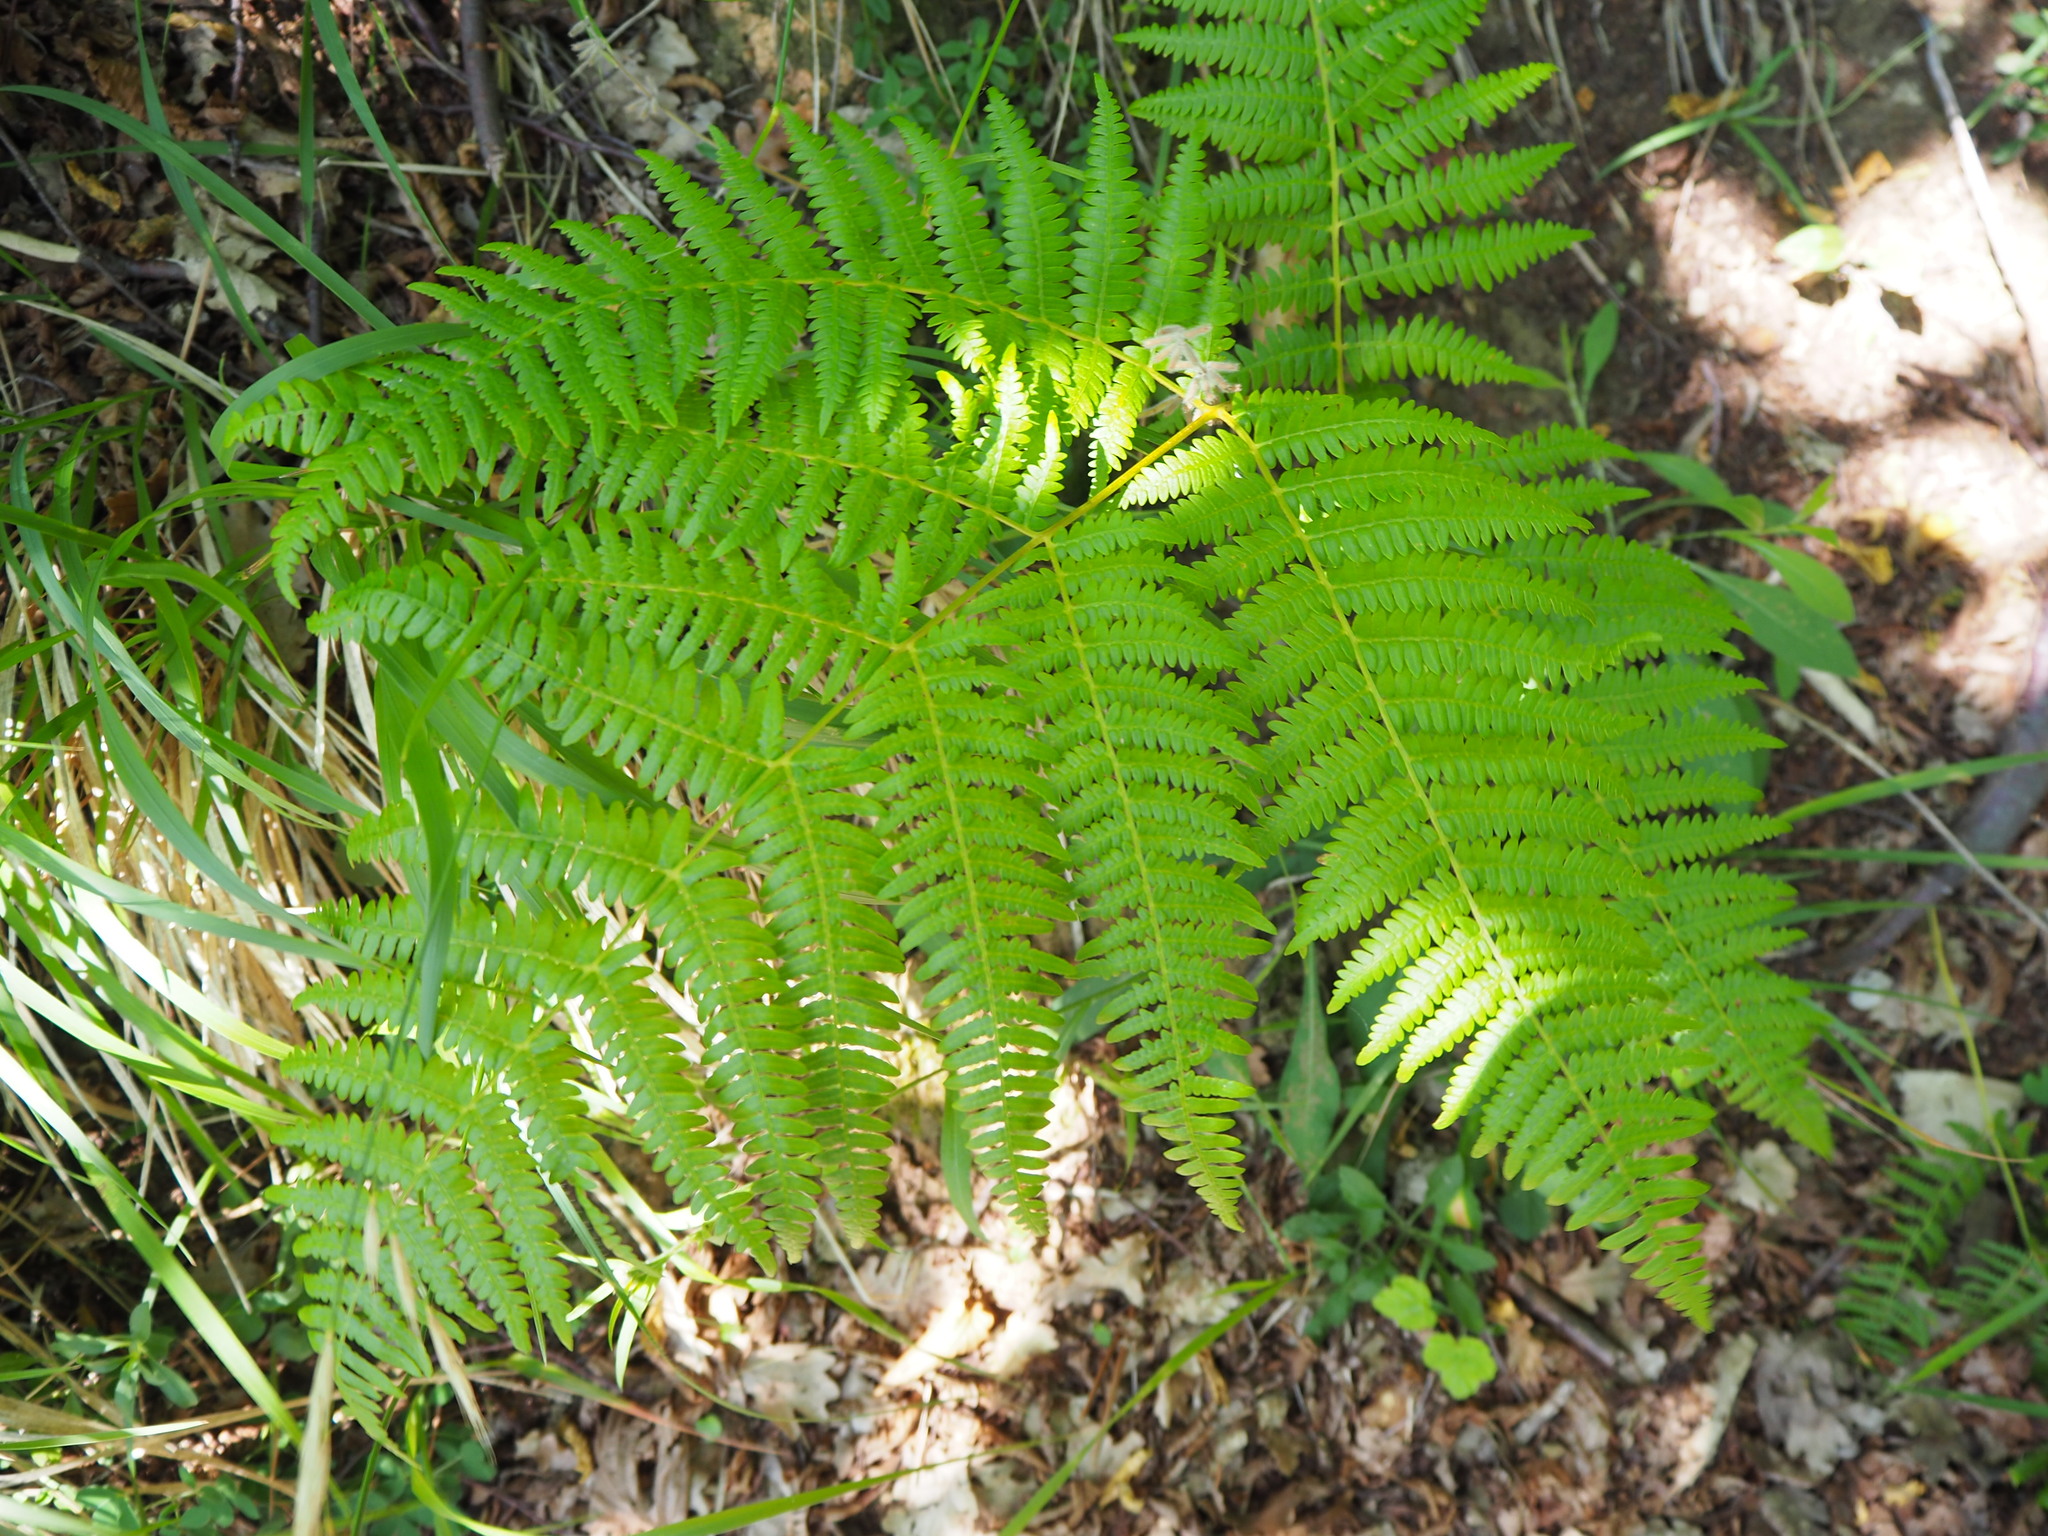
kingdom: Plantae
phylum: Tracheophyta
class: Polypodiopsida
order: Polypodiales
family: Dennstaedtiaceae
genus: Pteridium
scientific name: Pteridium aquilinum
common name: Bracken
